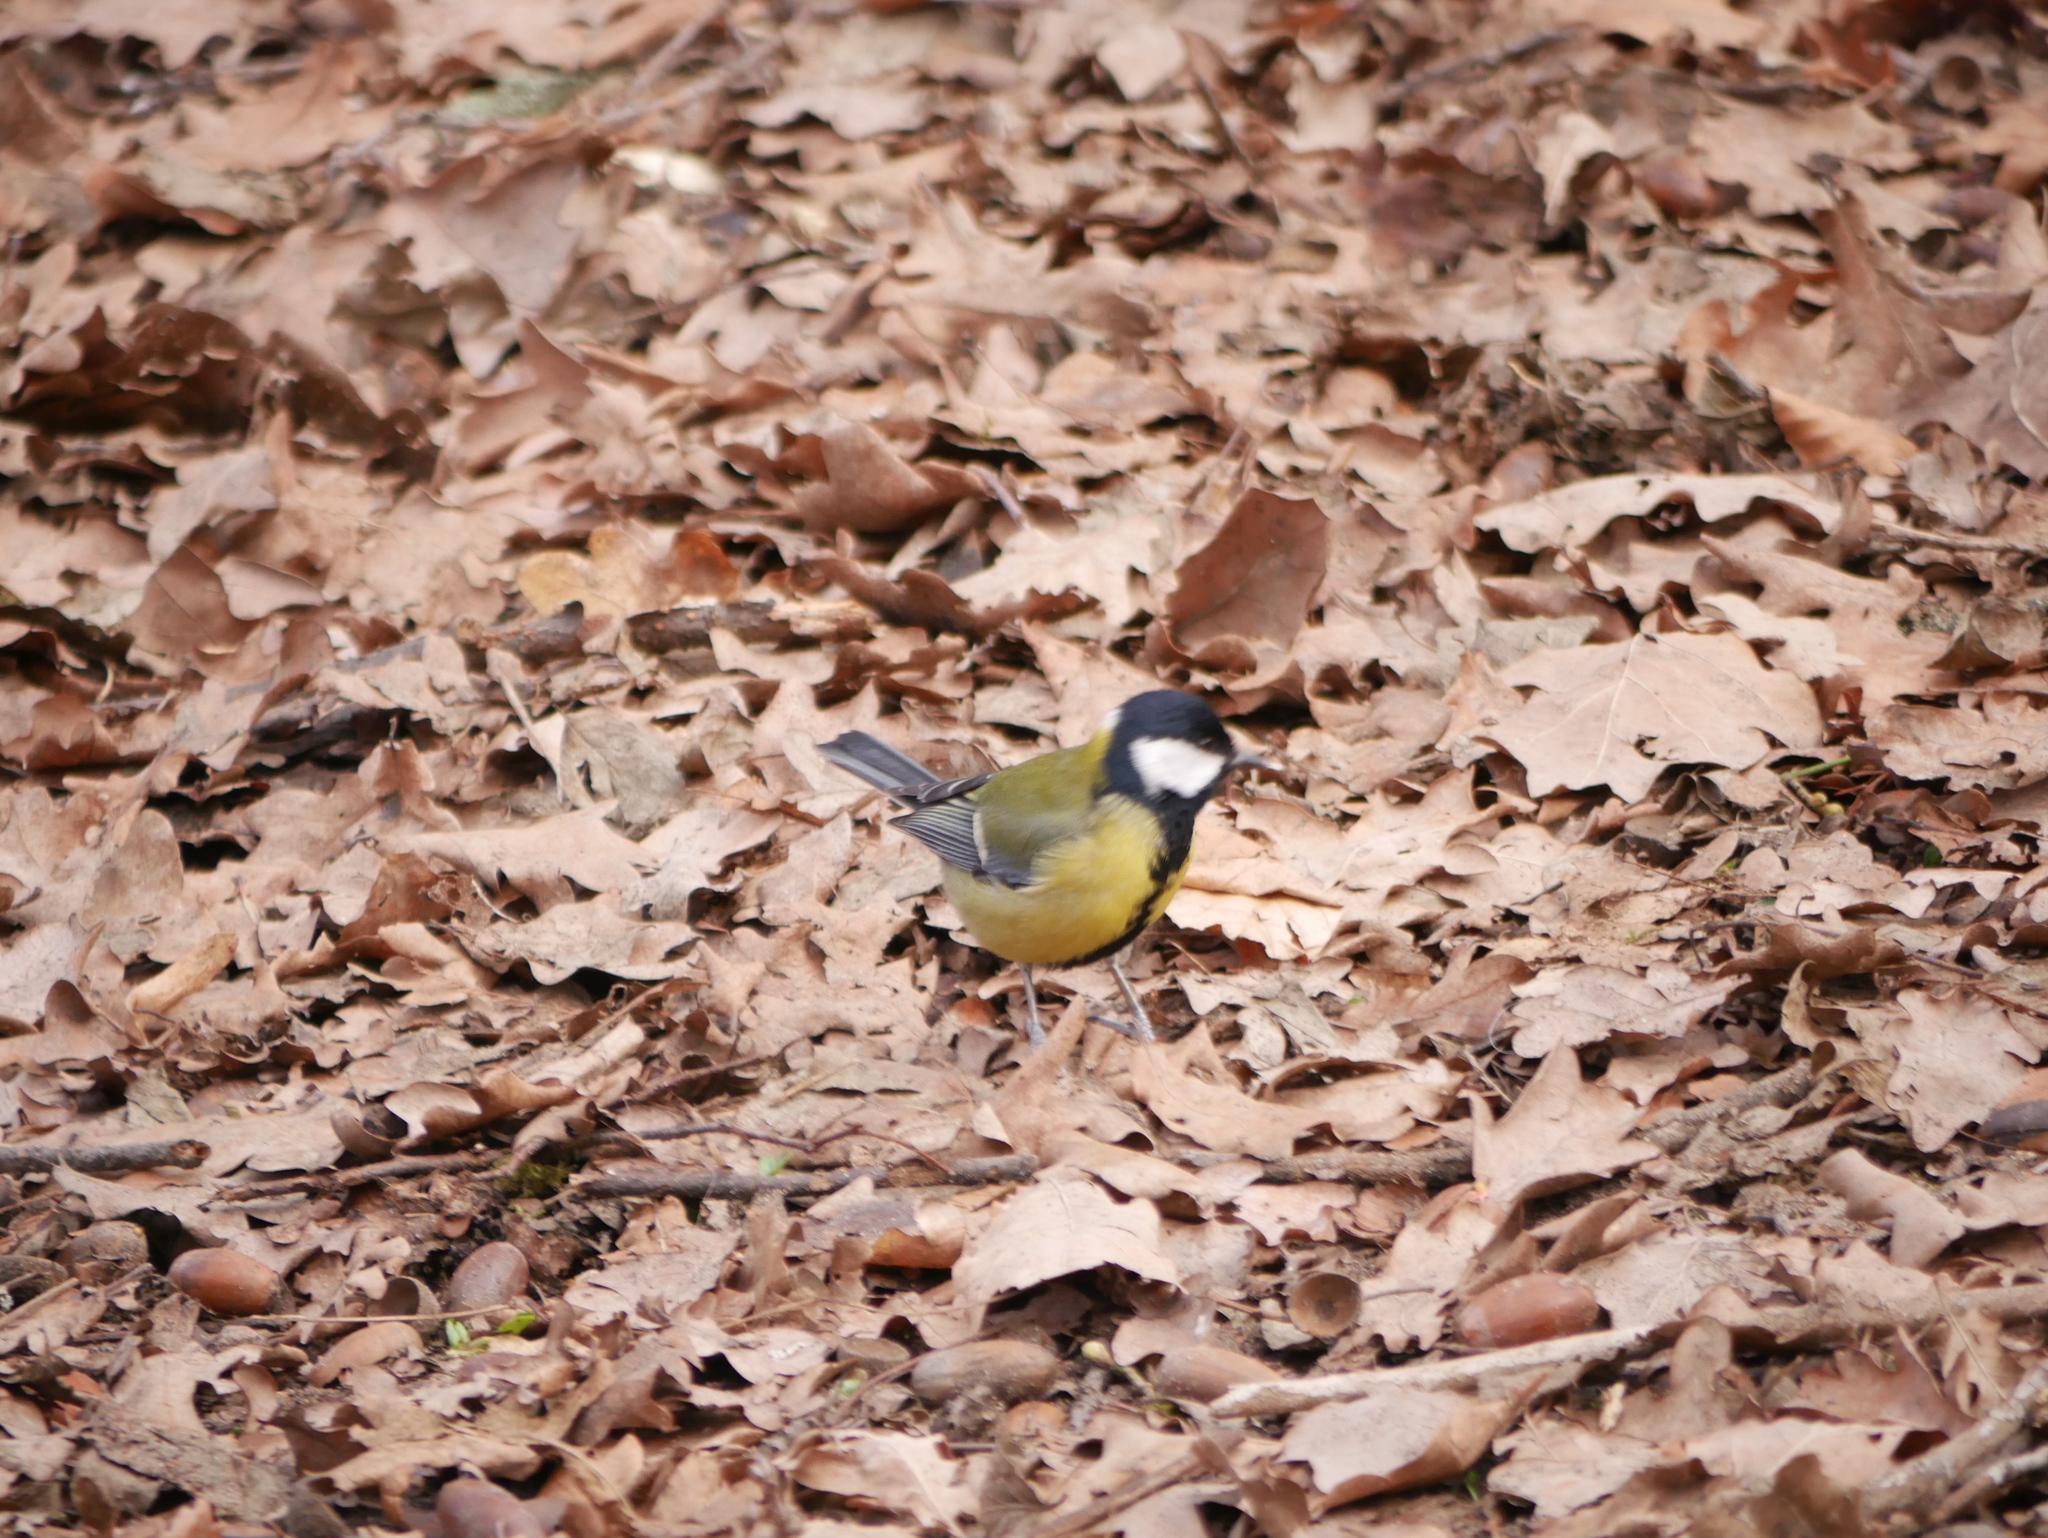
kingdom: Animalia
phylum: Chordata
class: Aves
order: Passeriformes
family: Paridae
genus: Parus
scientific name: Parus major
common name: Great tit
